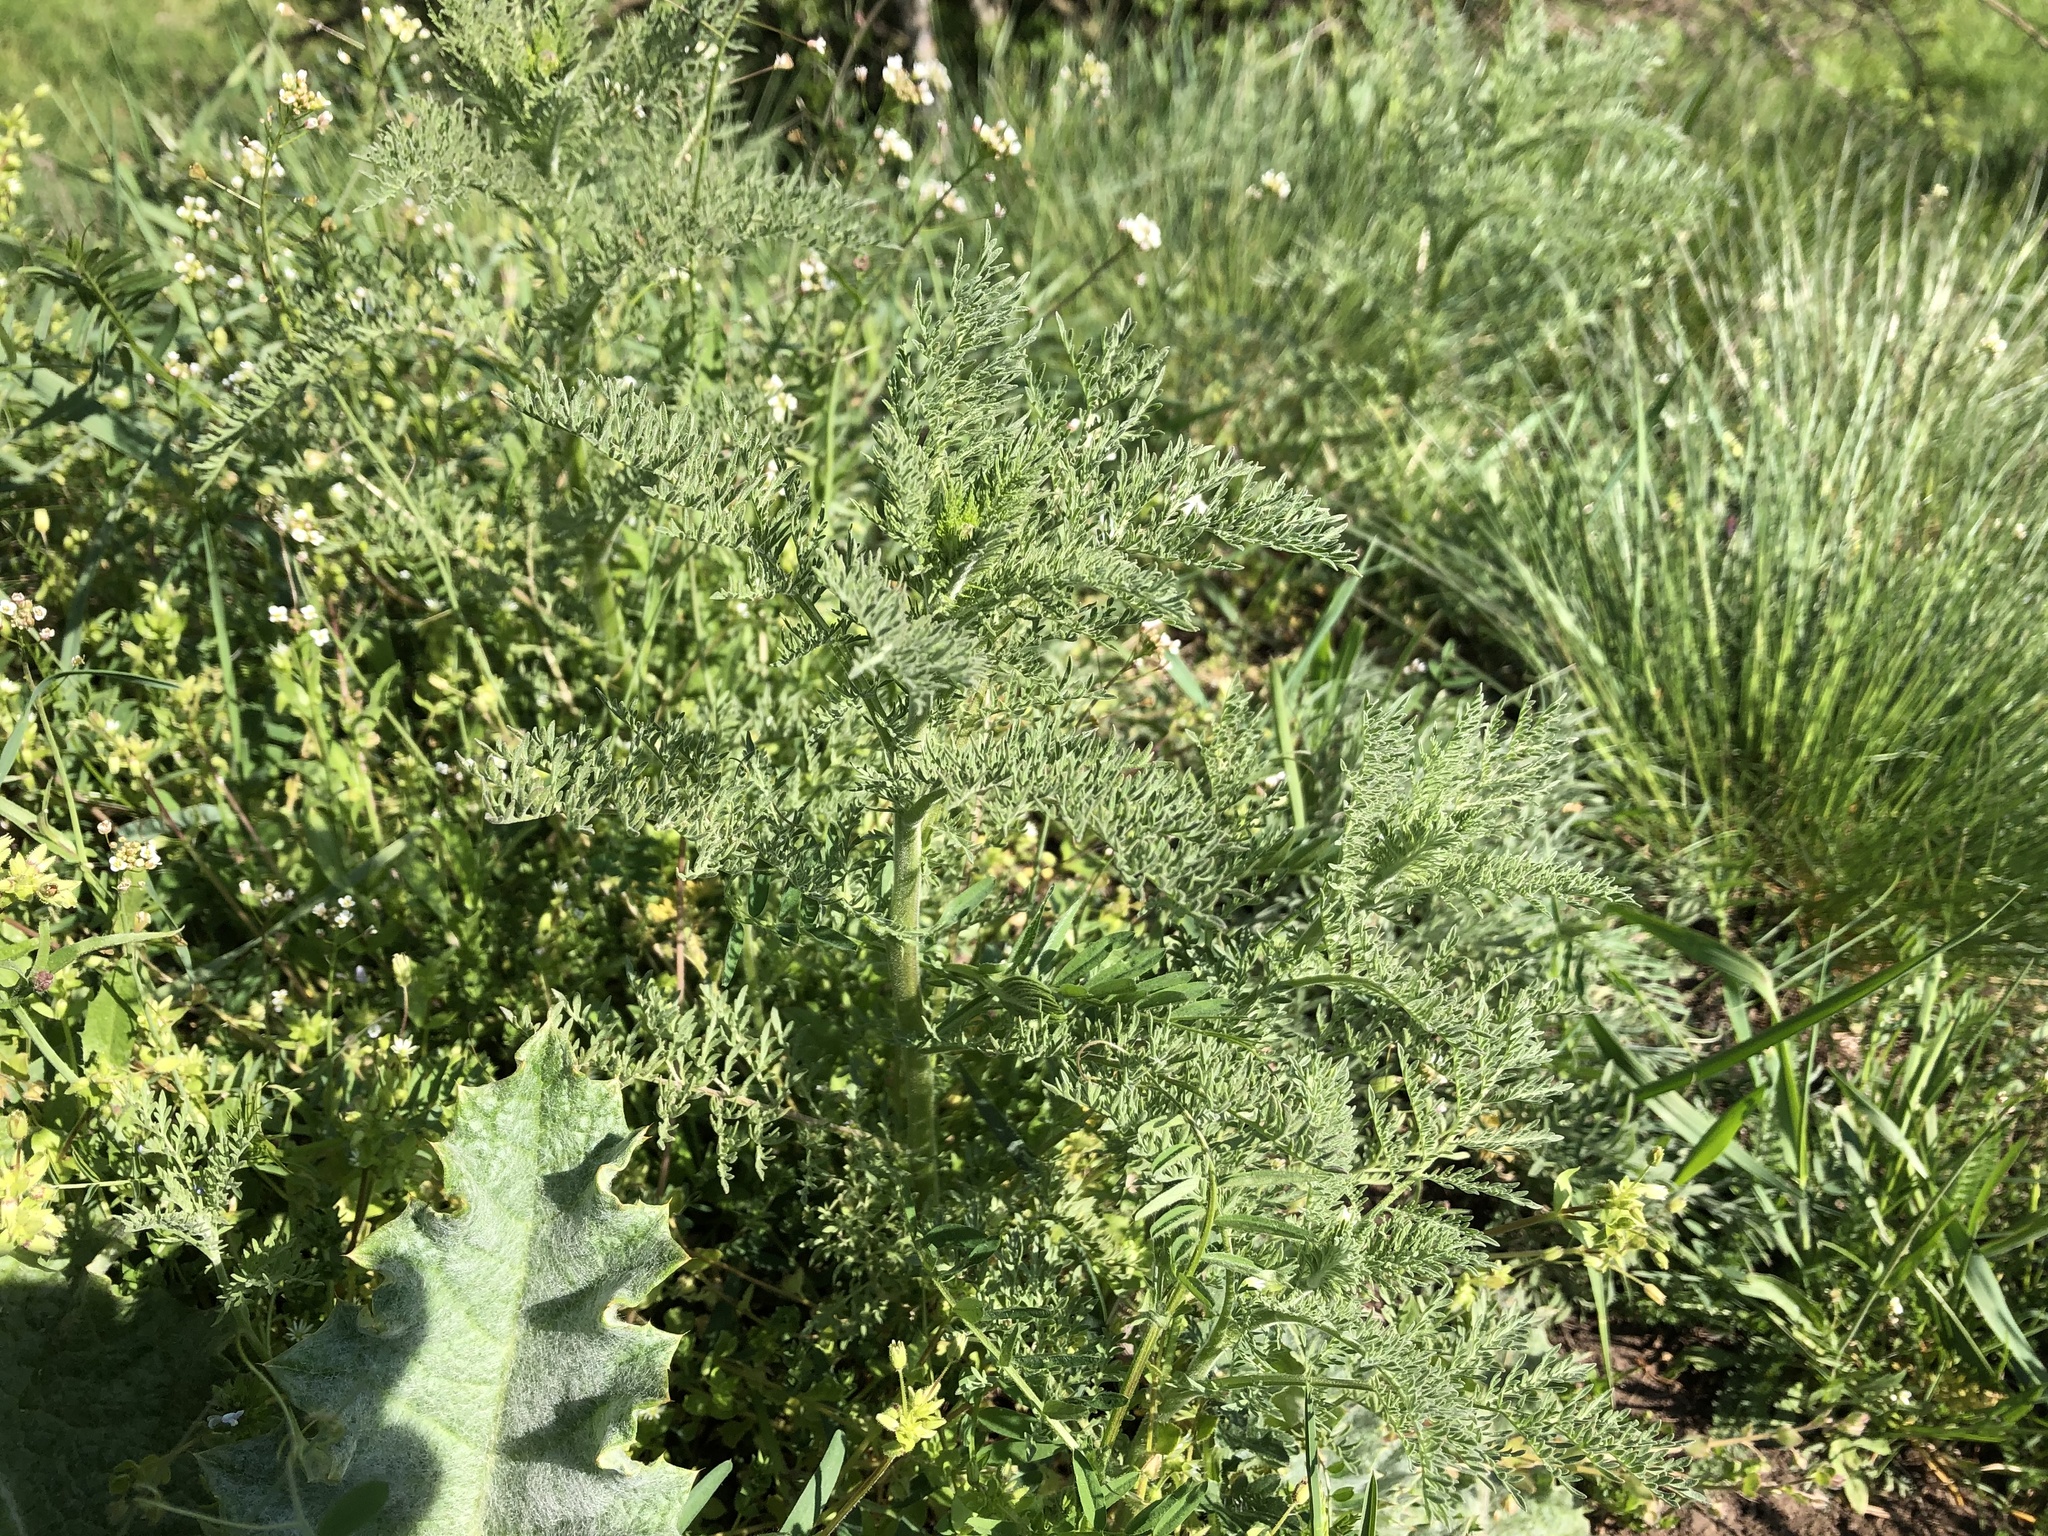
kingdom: Plantae
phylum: Tracheophyta
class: Magnoliopsida
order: Brassicales
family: Brassicaceae
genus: Descurainia
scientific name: Descurainia sophia
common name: Flixweed
